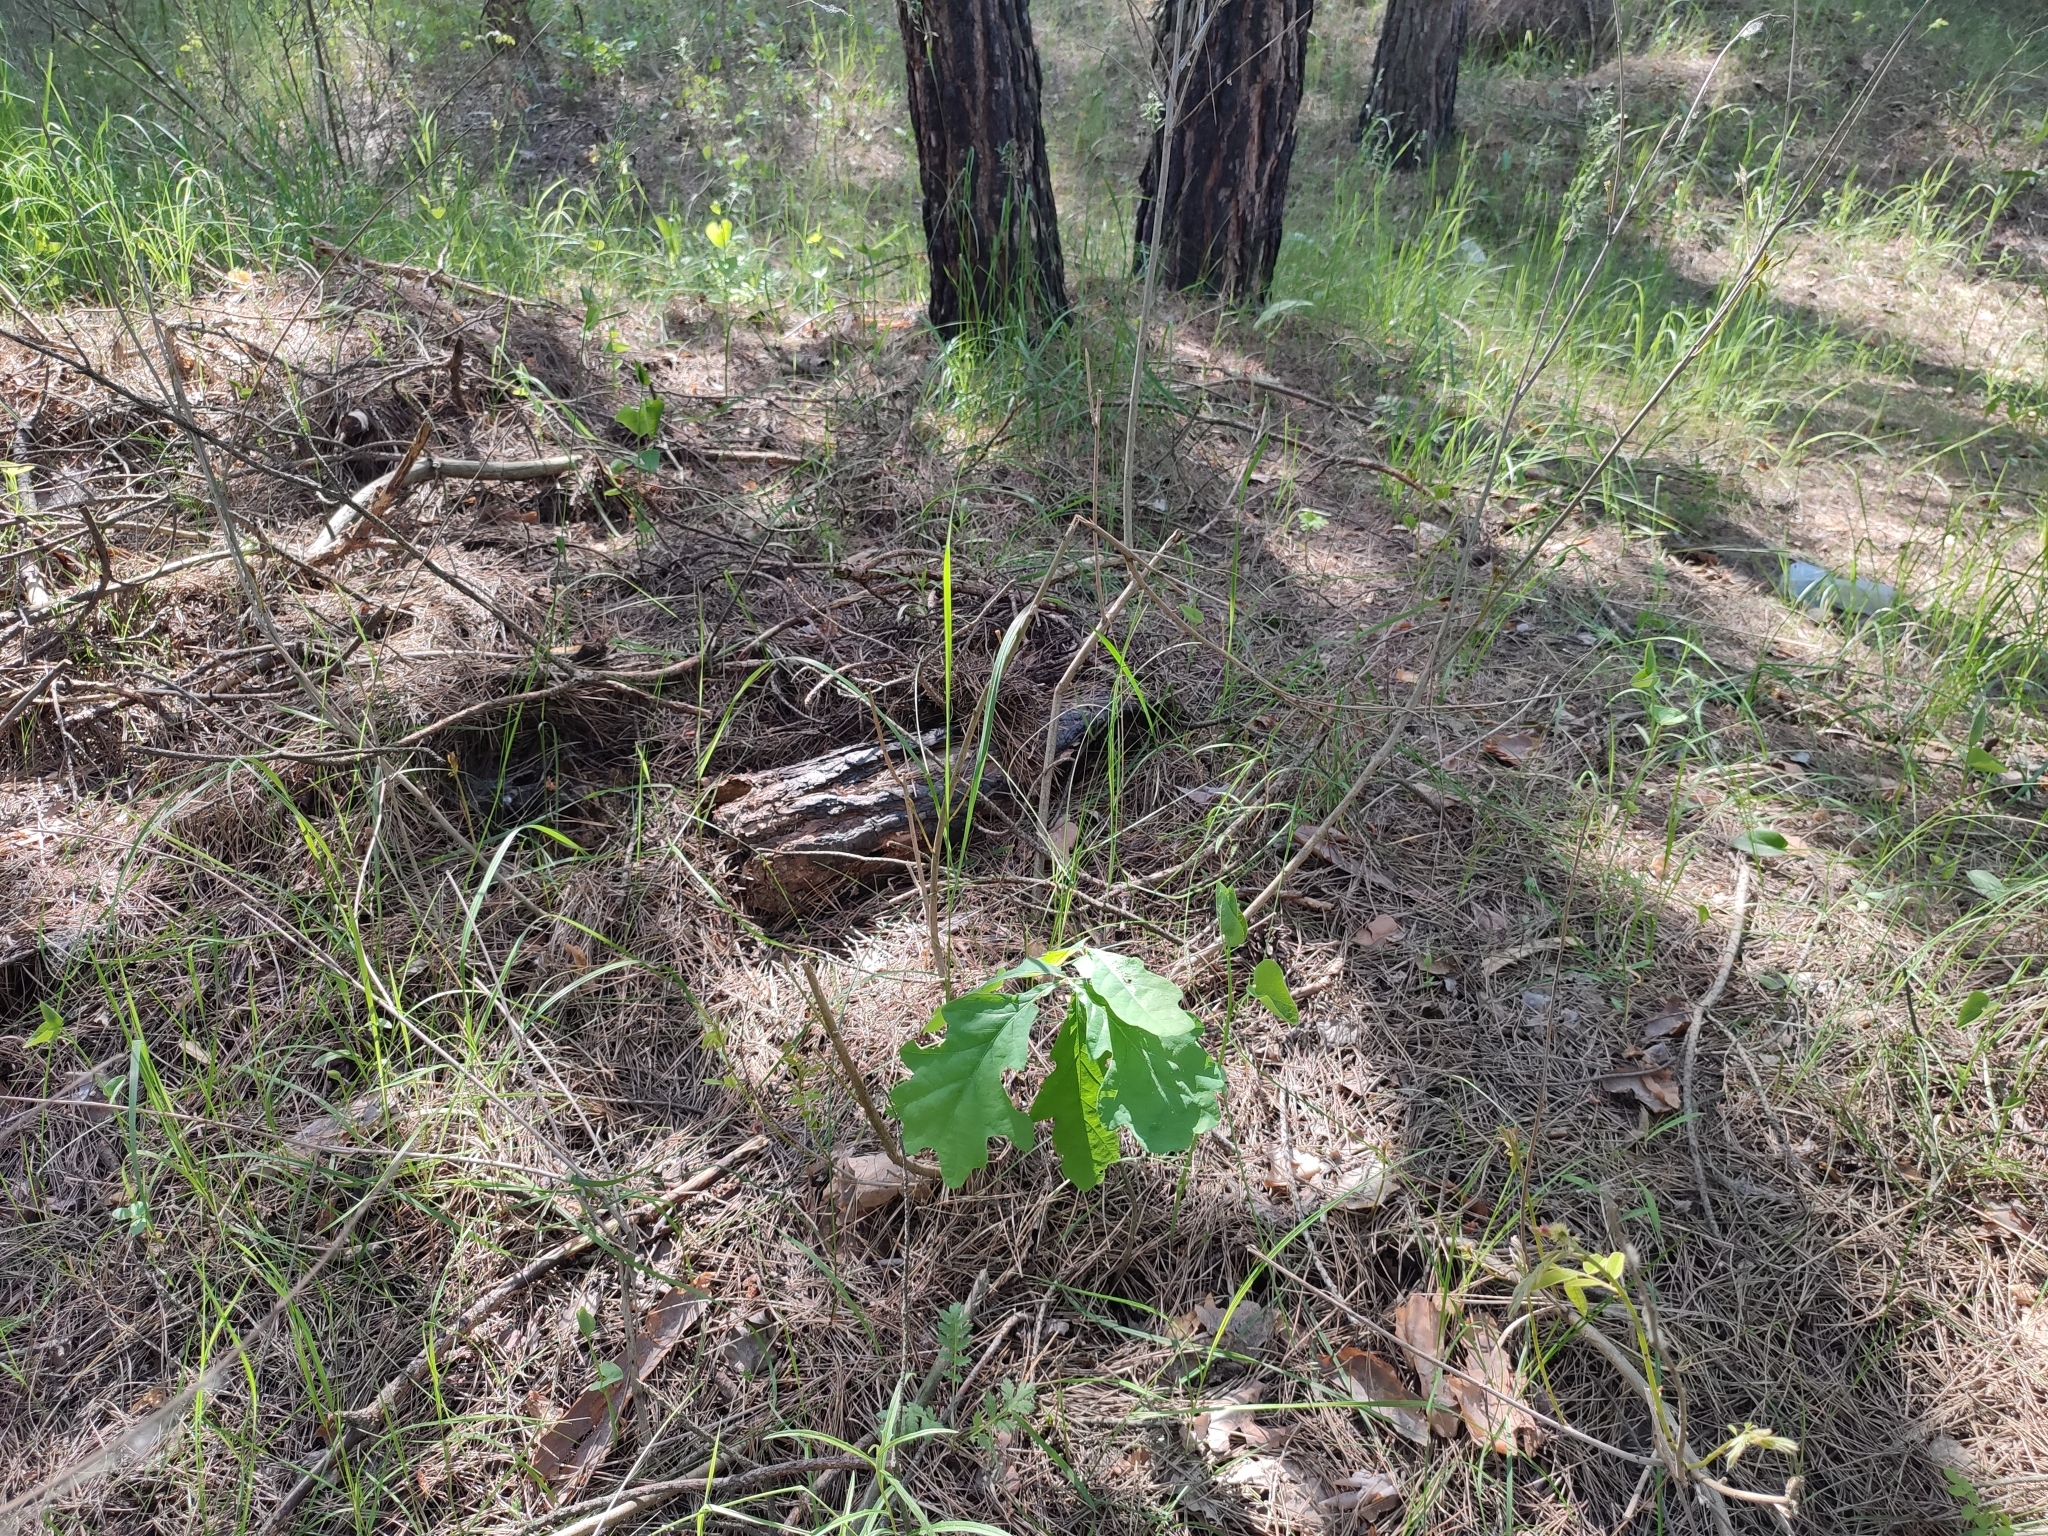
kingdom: Plantae
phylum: Tracheophyta
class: Magnoliopsida
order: Fagales
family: Fagaceae
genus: Quercus
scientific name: Quercus robur
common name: Pedunculate oak
